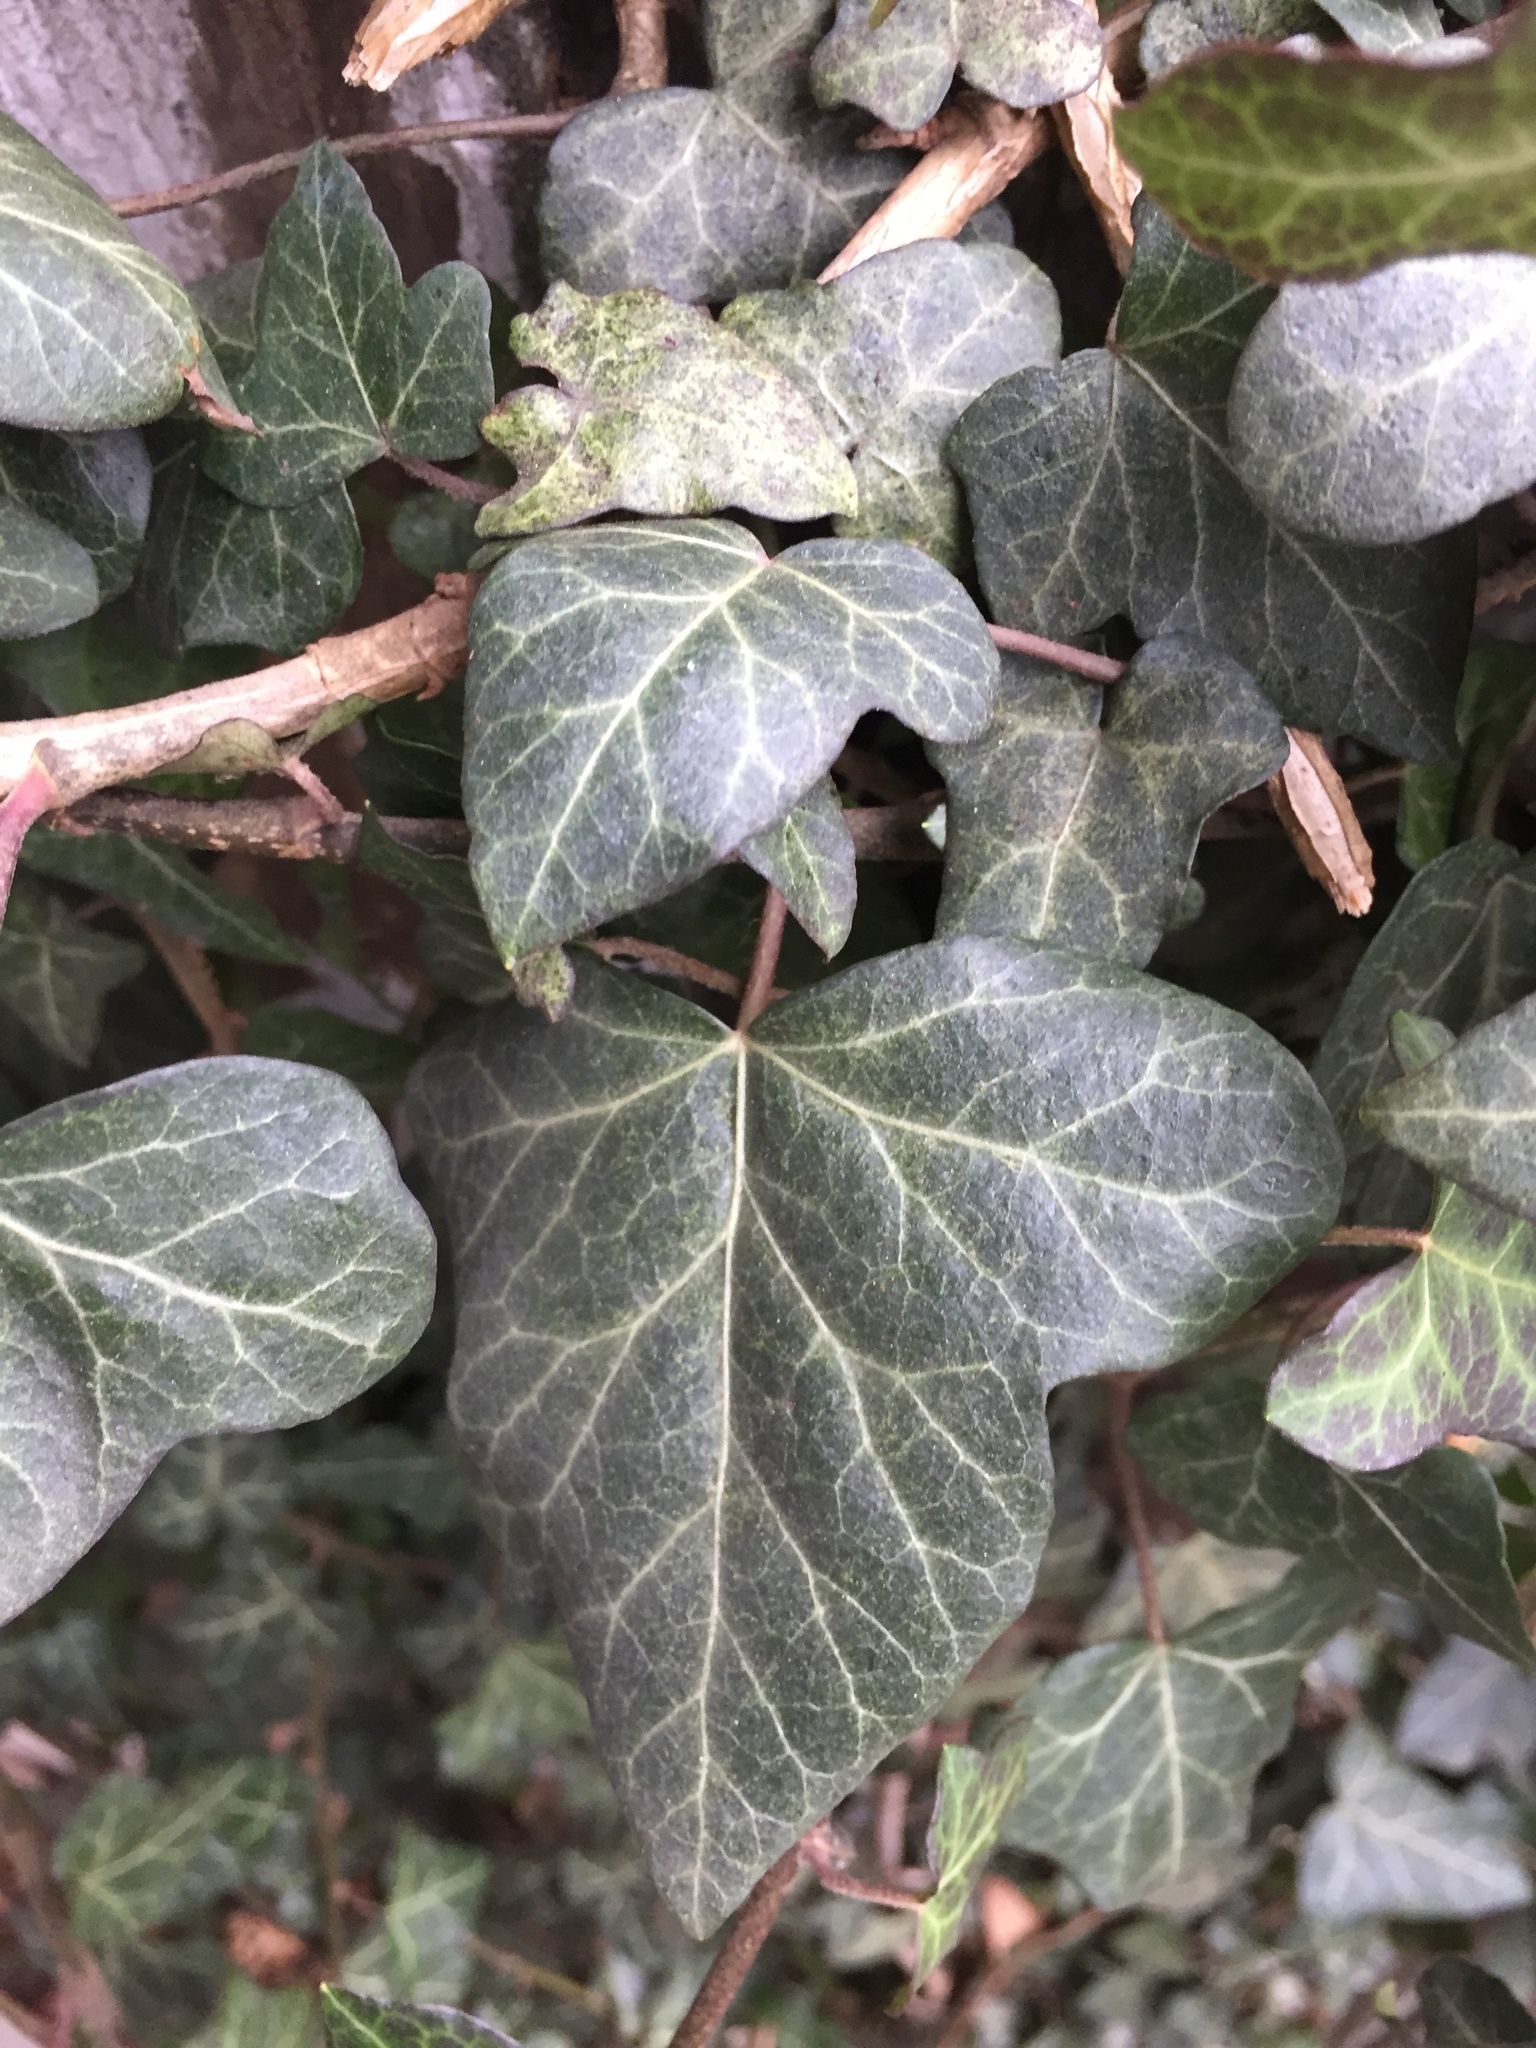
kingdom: Plantae
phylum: Tracheophyta
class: Magnoliopsida
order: Apiales
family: Araliaceae
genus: Hedera
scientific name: Hedera helix
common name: Ivy
